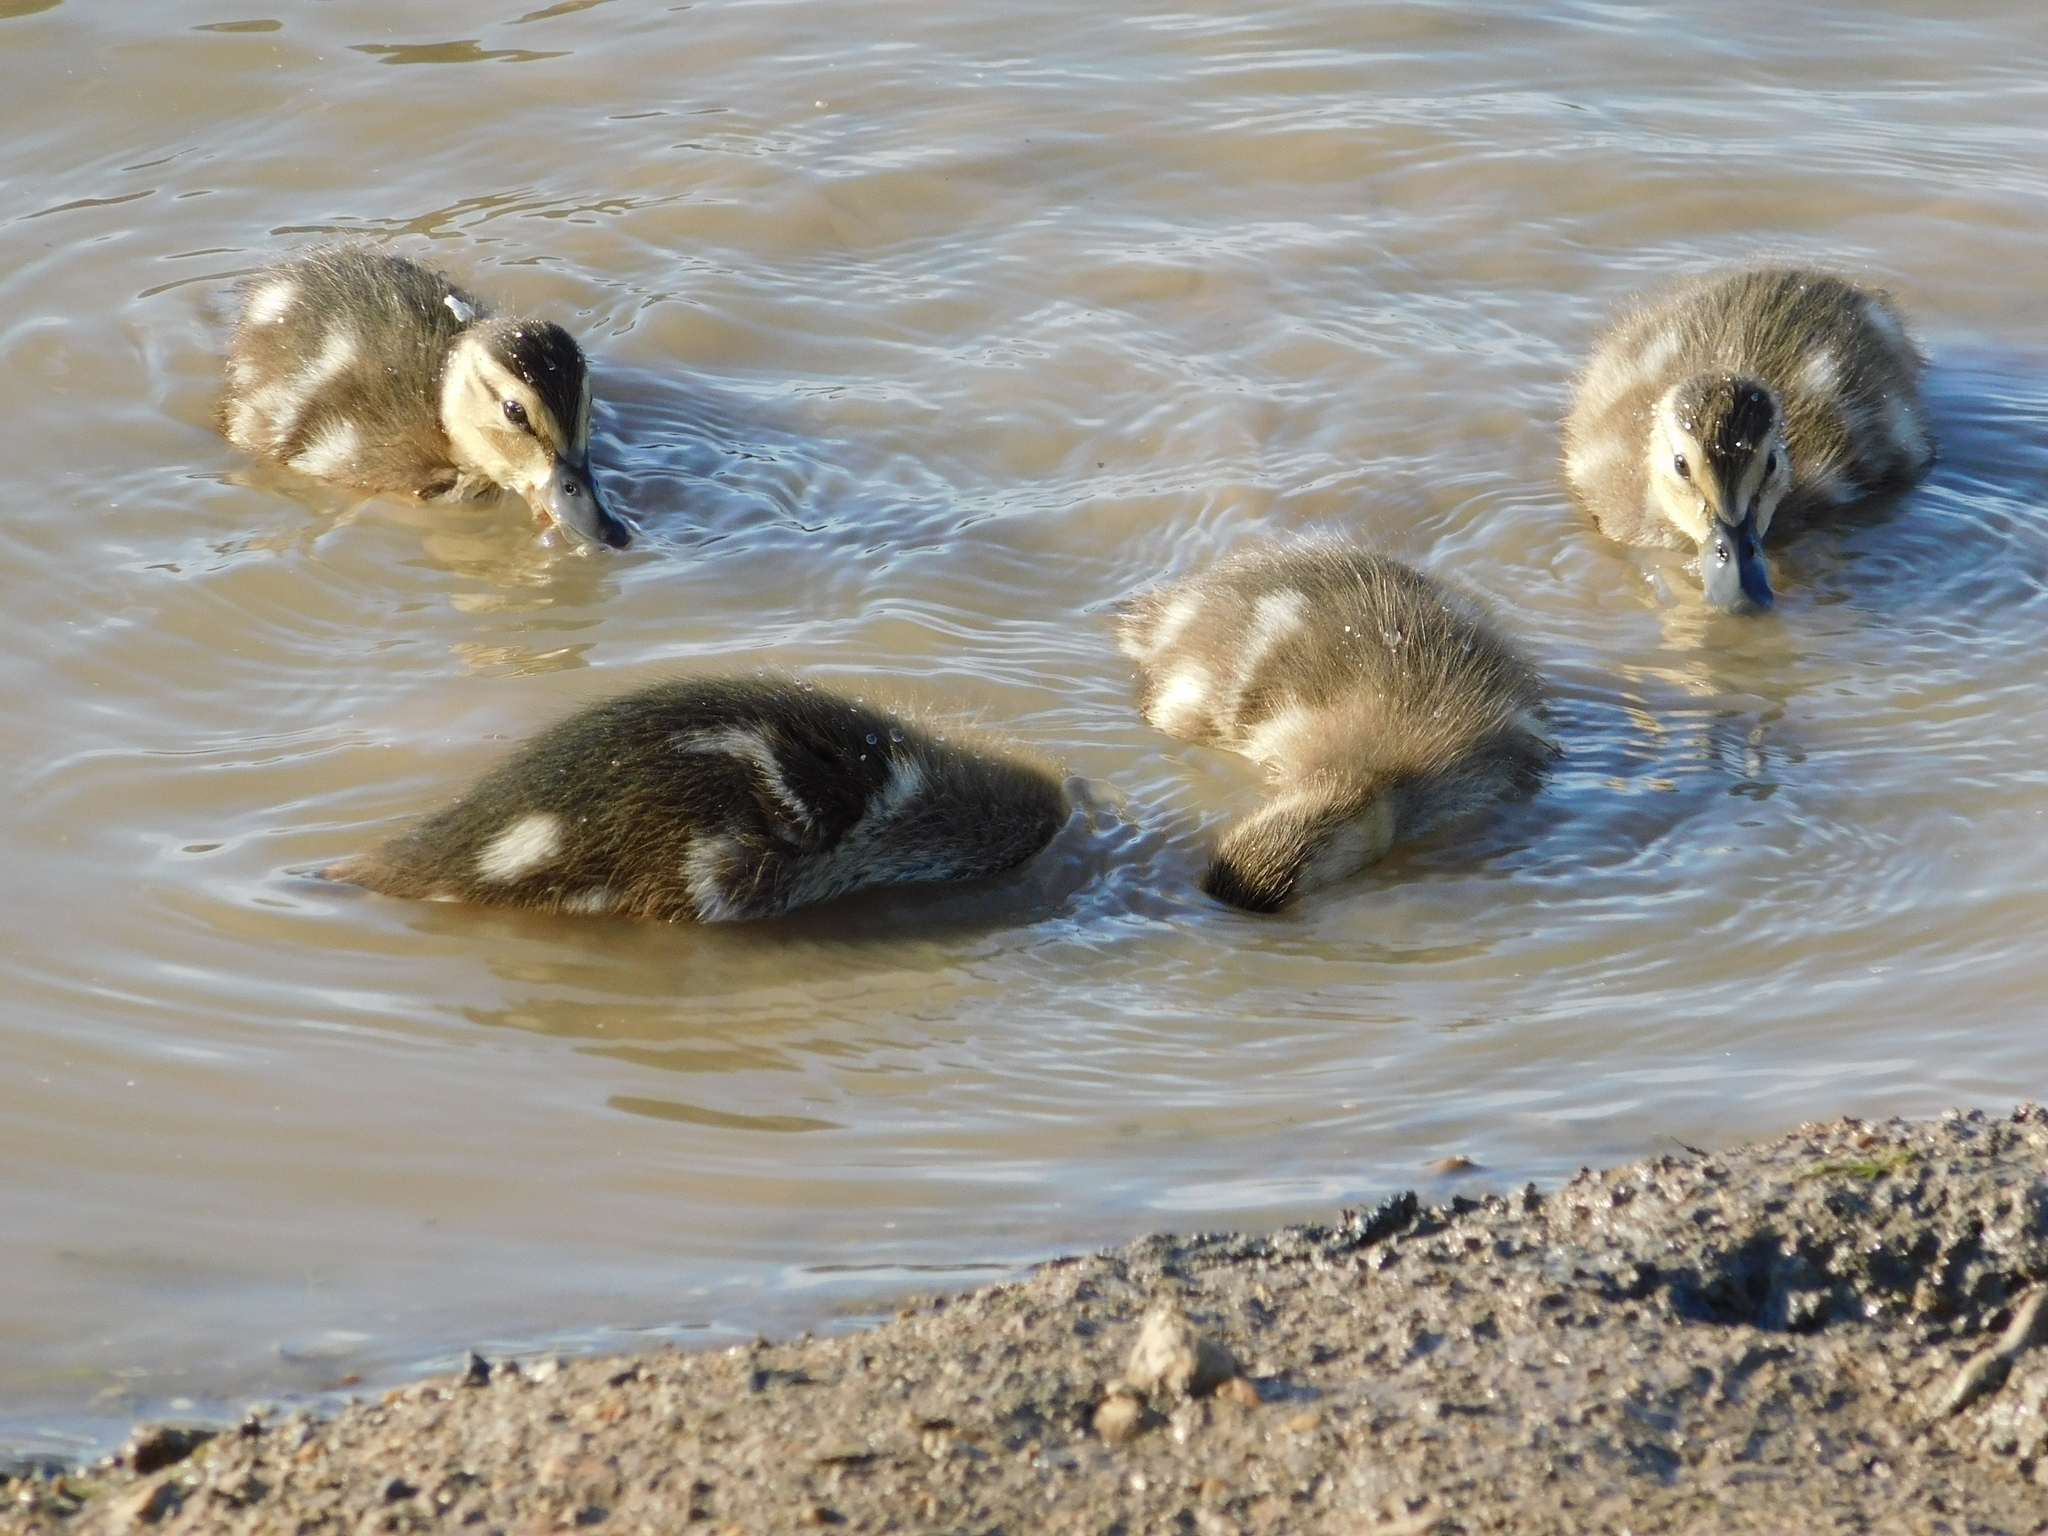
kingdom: Animalia
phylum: Chordata
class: Aves
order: Anseriformes
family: Anatidae
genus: Anas
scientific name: Anas platyrhynchos
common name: Mallard
